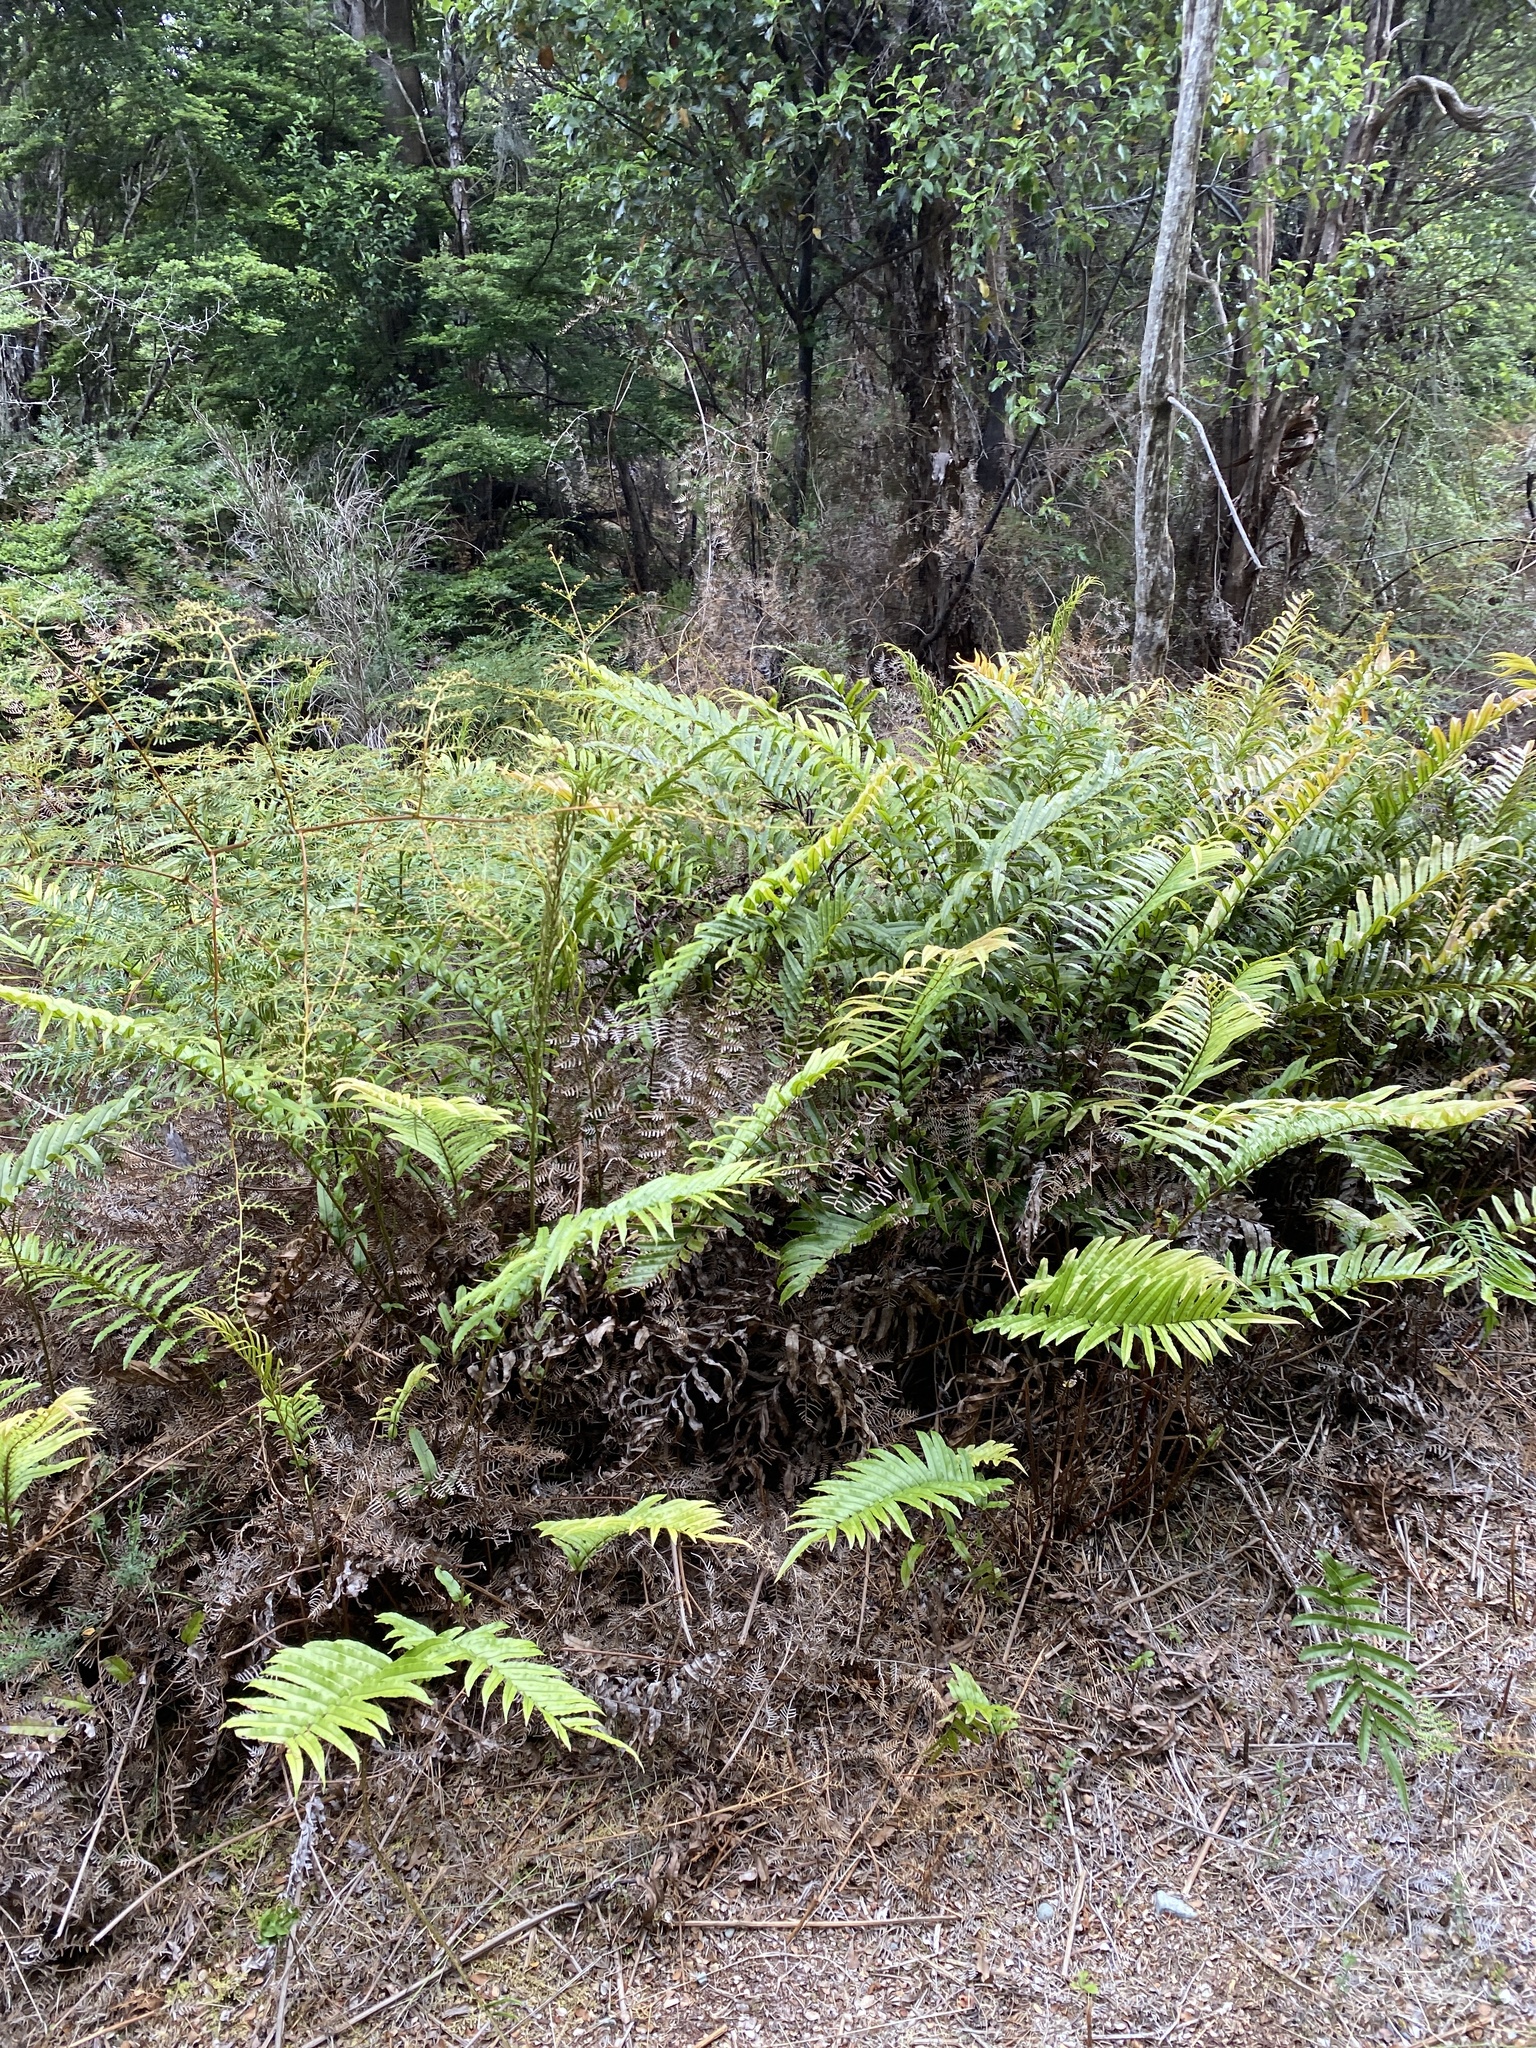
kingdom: Plantae
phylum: Tracheophyta
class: Polypodiopsida
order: Polypodiales
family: Blechnaceae
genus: Parablechnum
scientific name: Parablechnum novae-zelandiae
